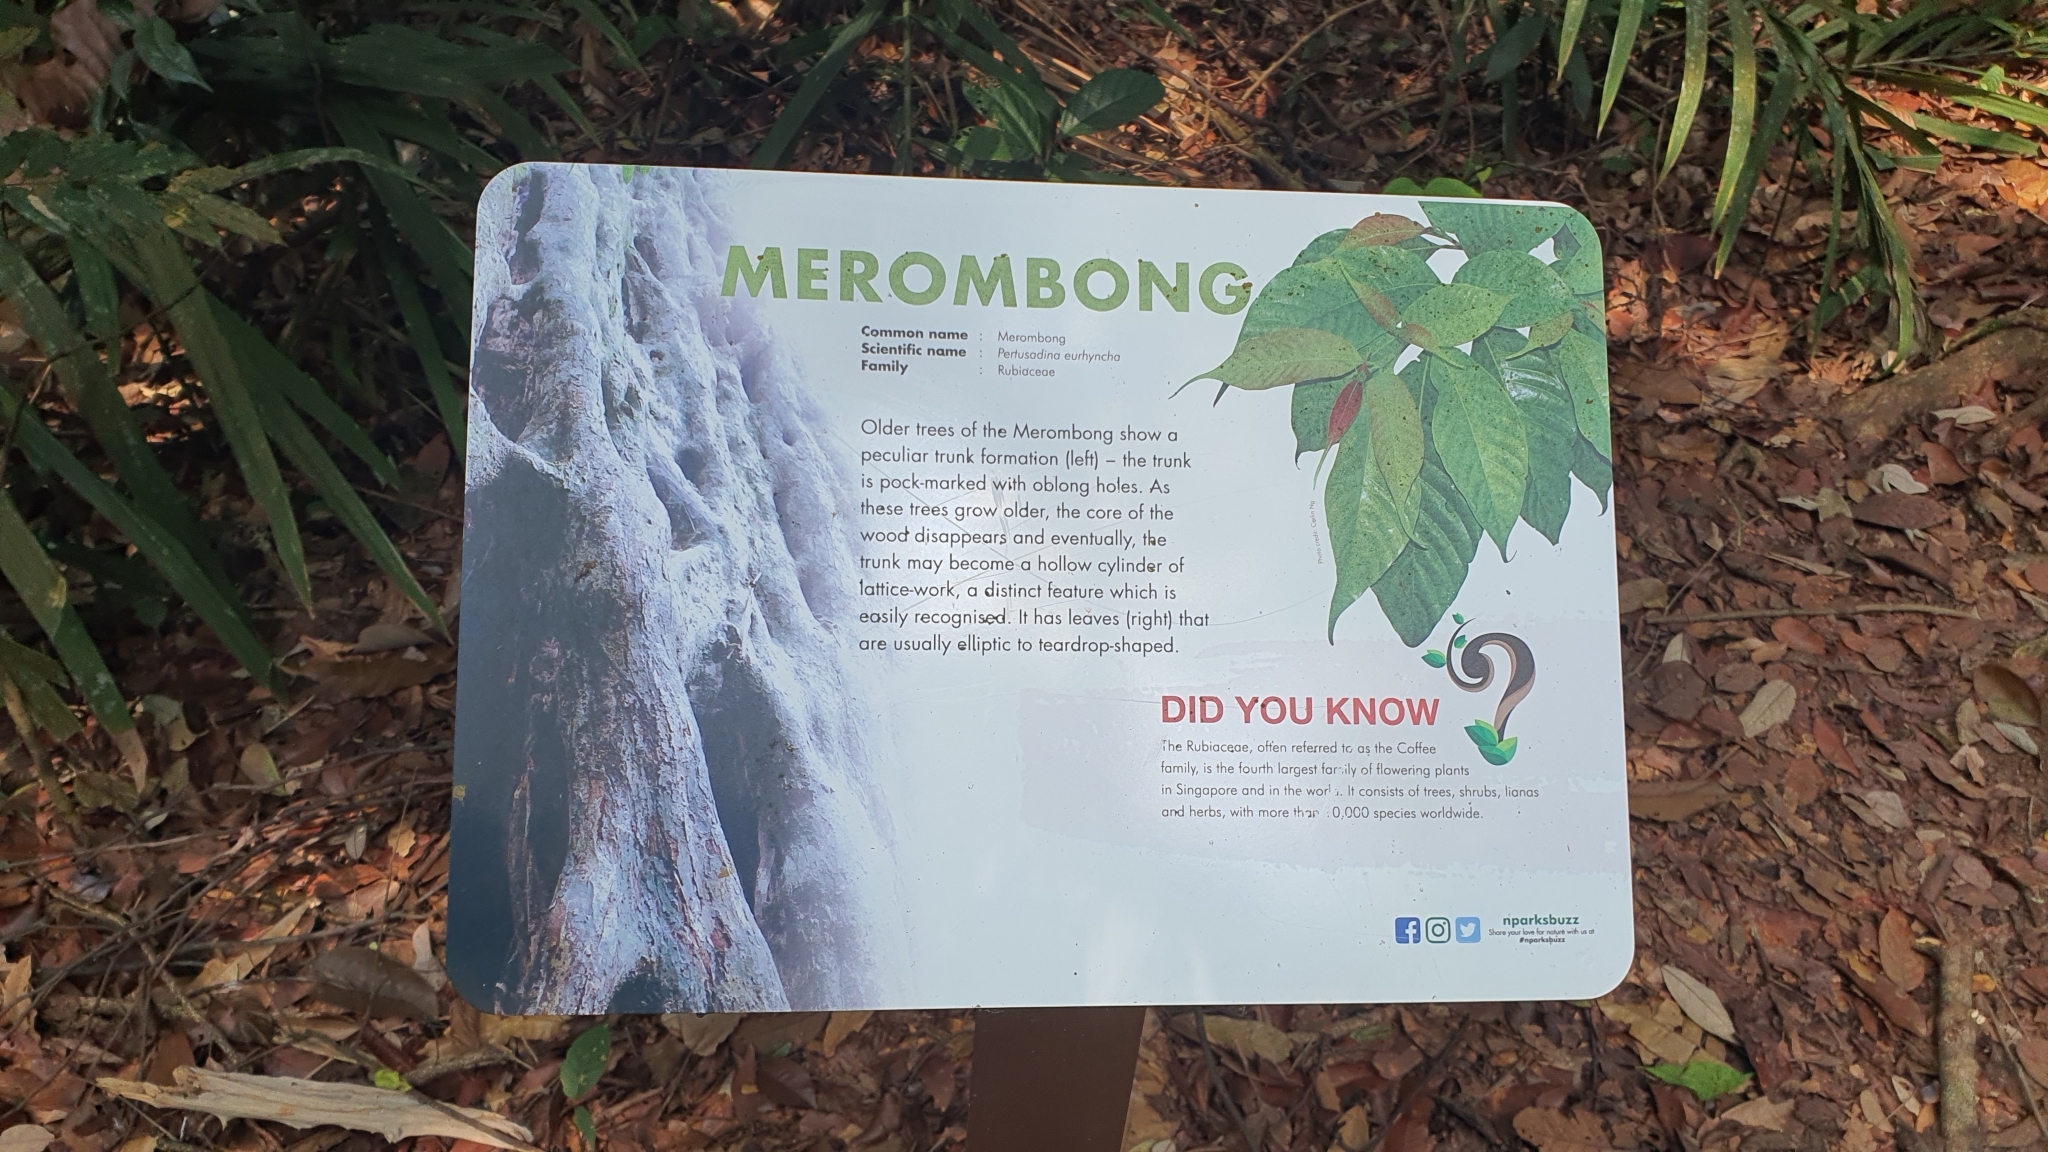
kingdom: Plantae
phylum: Tracheophyta
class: Magnoliopsida
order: Gentianales
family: Rubiaceae
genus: Adina
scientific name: Adina eurhyncha
